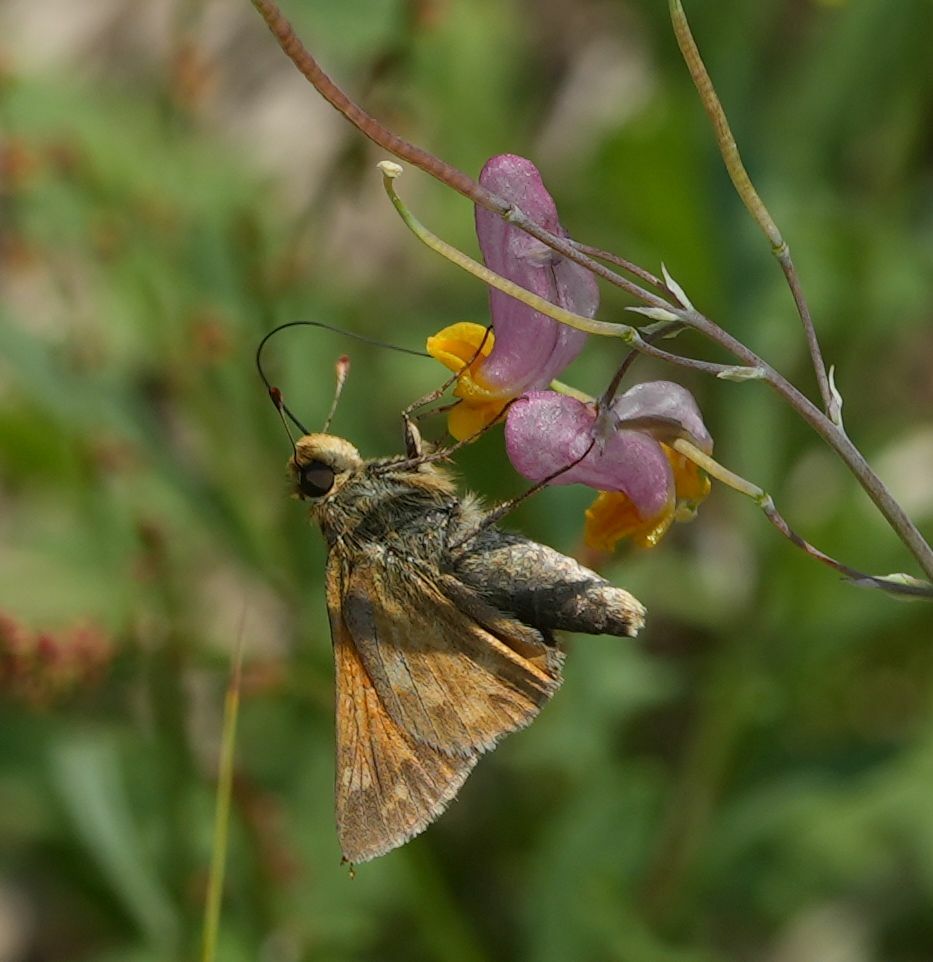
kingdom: Animalia
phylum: Arthropoda
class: Insecta
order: Lepidoptera
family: Hesperiidae
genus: Hesperia
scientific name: Hesperia sassacus
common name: Indian skipper
